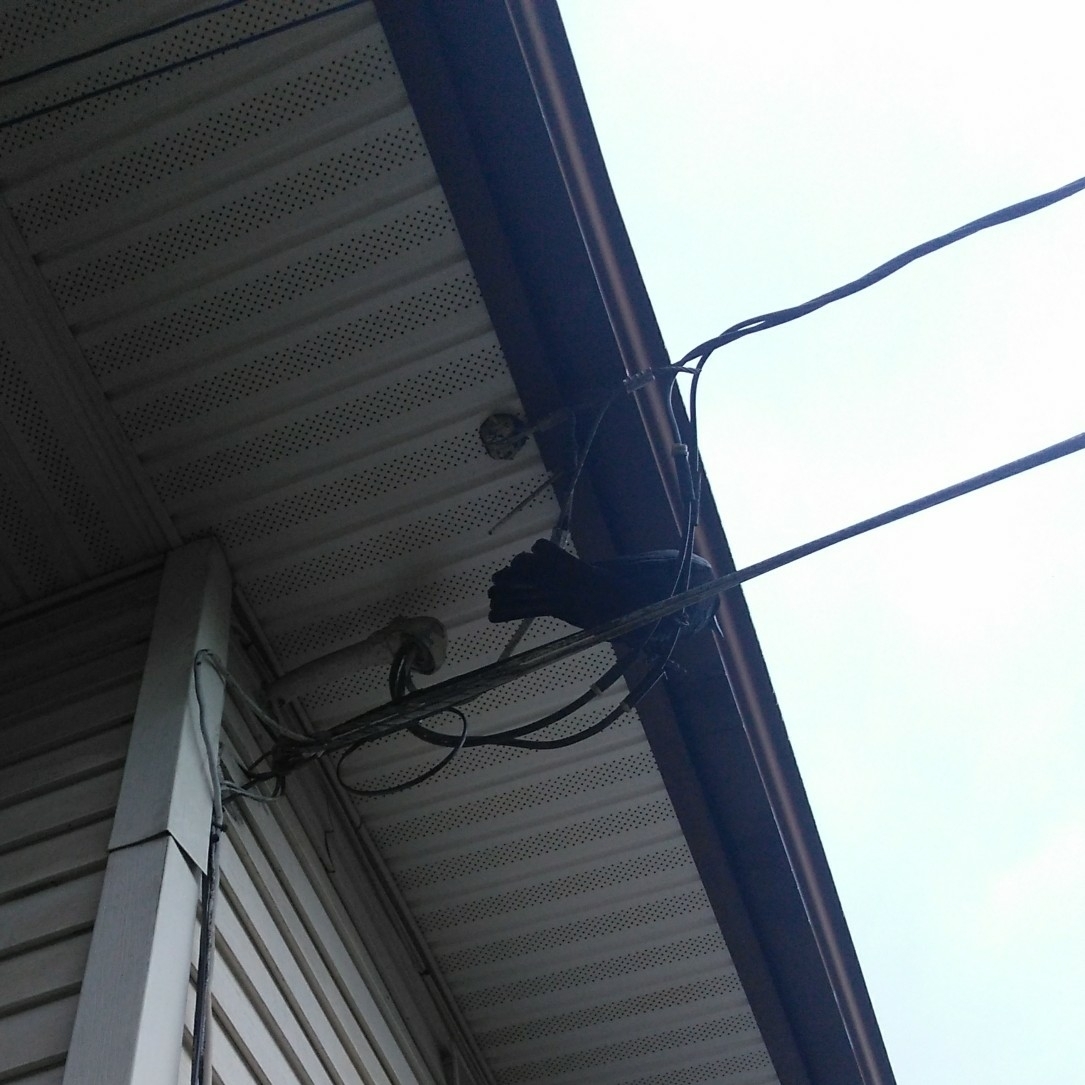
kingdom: Animalia
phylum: Chordata
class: Aves
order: Passeriformes
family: Corvidae
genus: Corvus
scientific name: Corvus brachyrhynchos
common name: American crow
